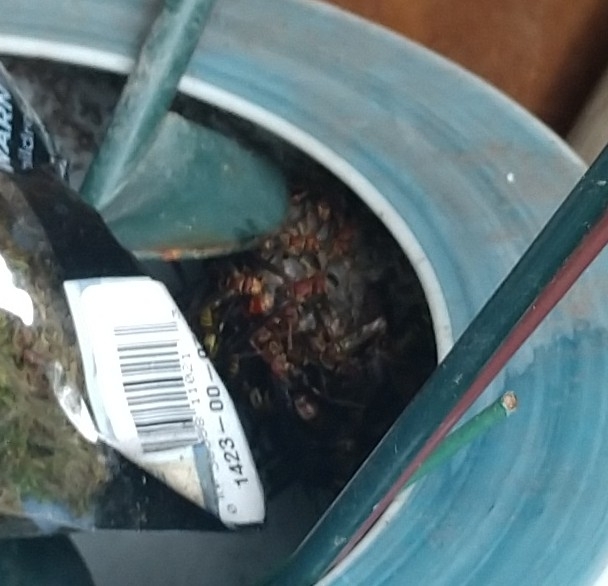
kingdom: Animalia
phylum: Arthropoda
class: Insecta
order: Hymenoptera
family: Vespidae
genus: Fuscopolistes
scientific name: Fuscopolistes
